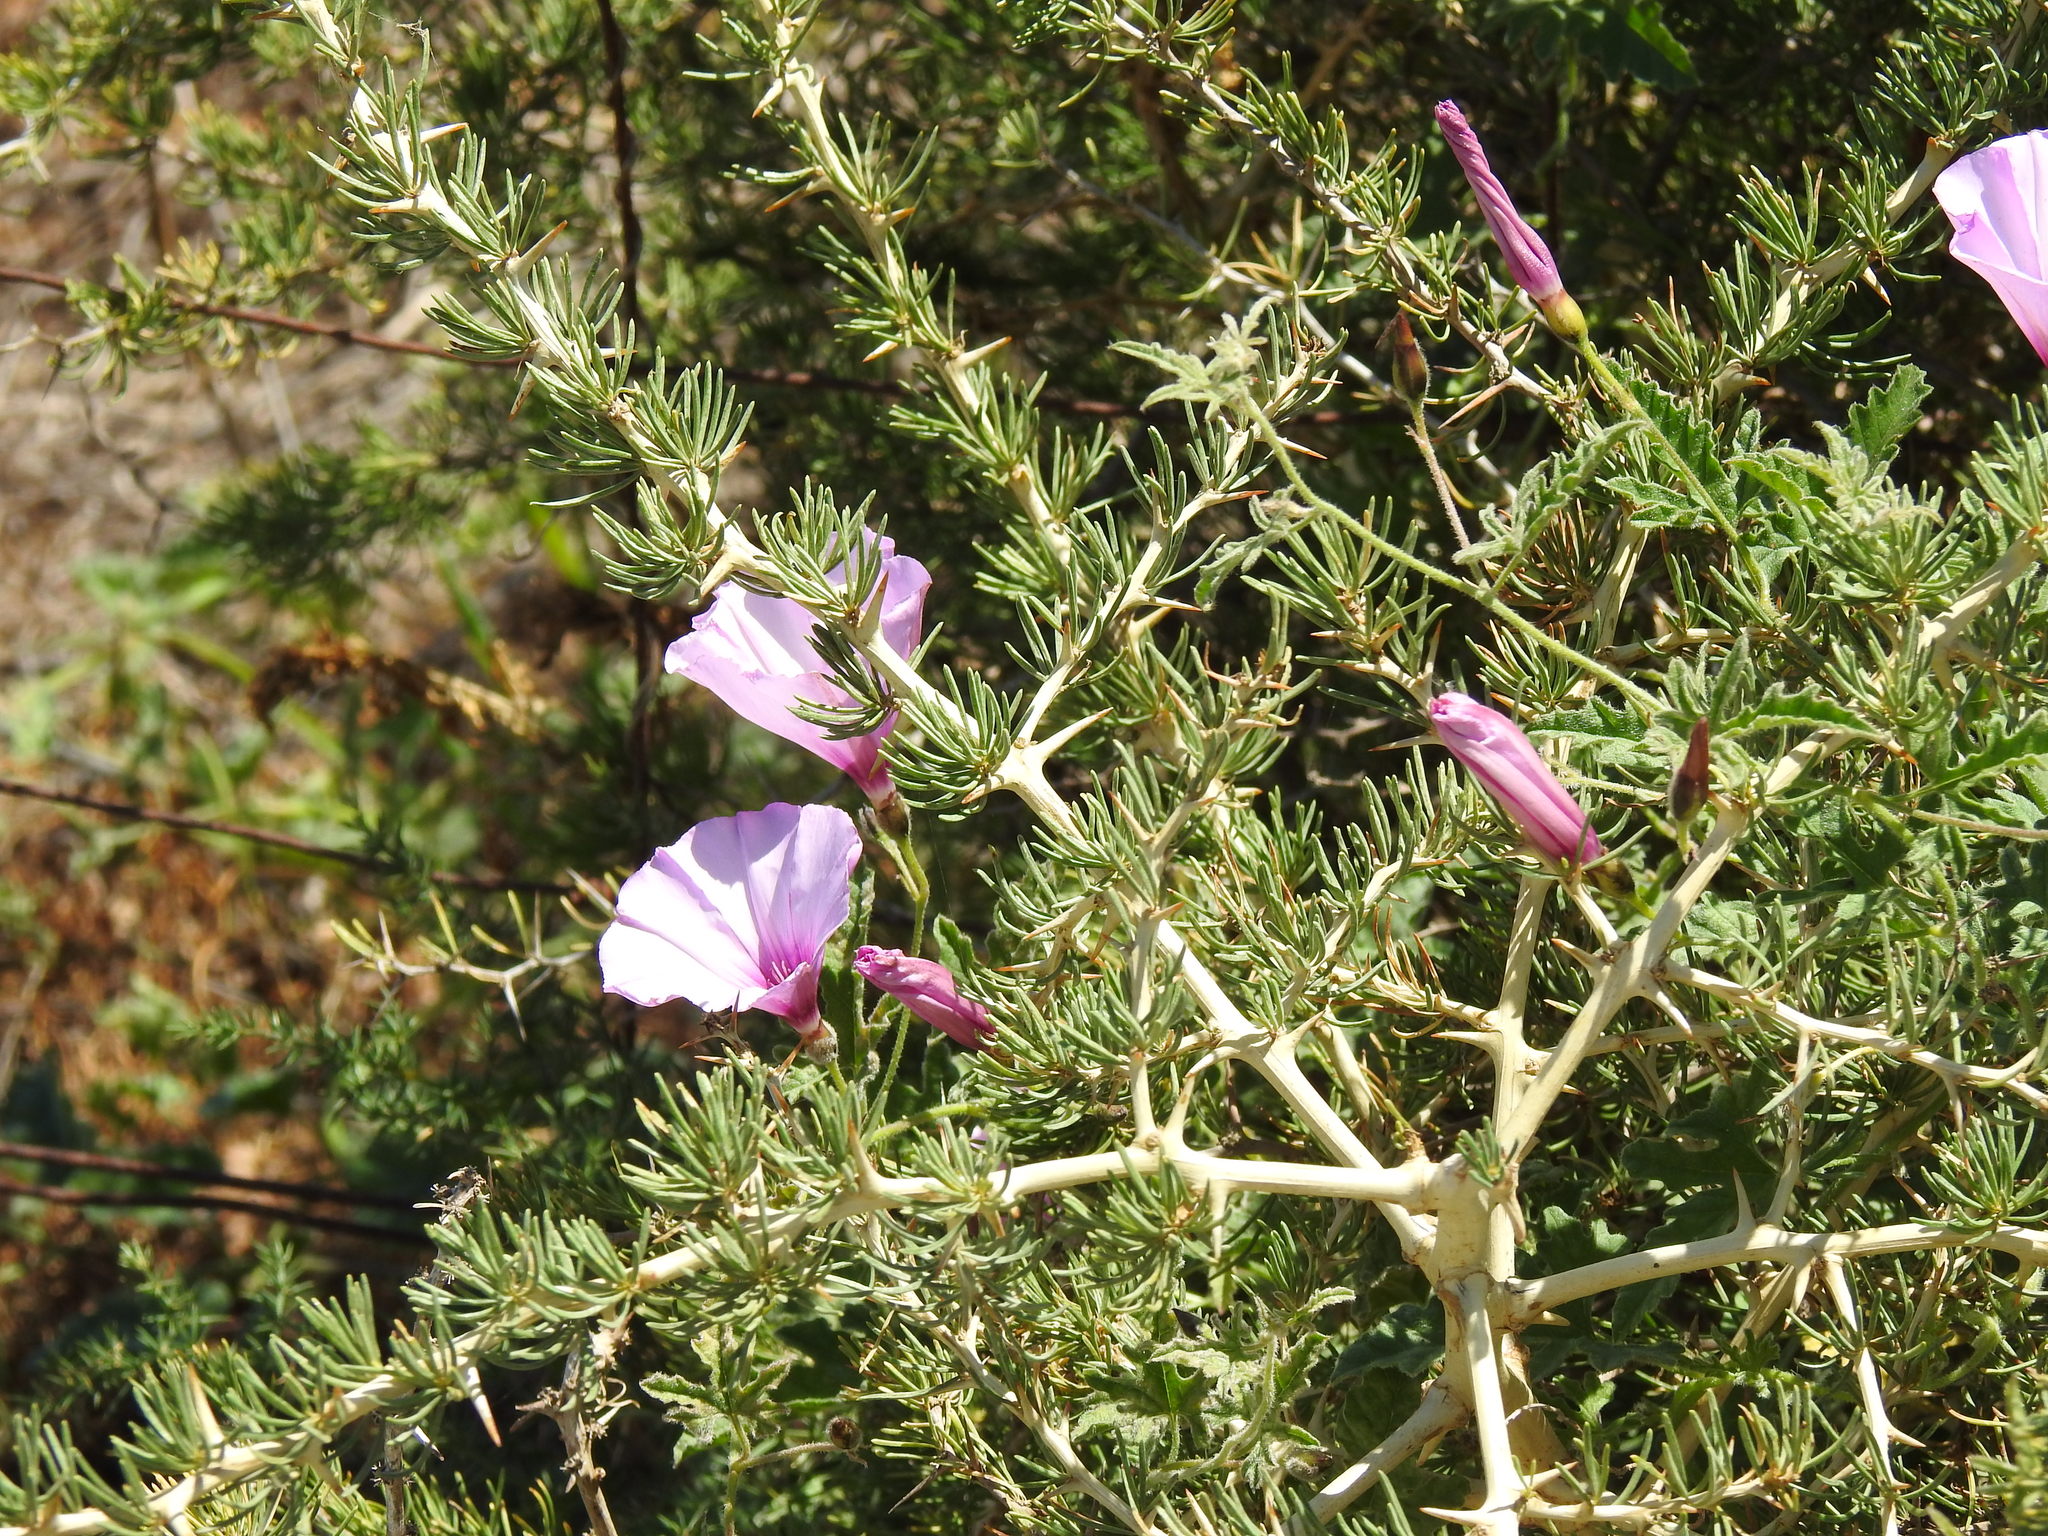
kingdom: Plantae
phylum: Tracheophyta
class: Liliopsida
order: Asparagales
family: Asparagaceae
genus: Asparagus
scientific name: Asparagus albus
